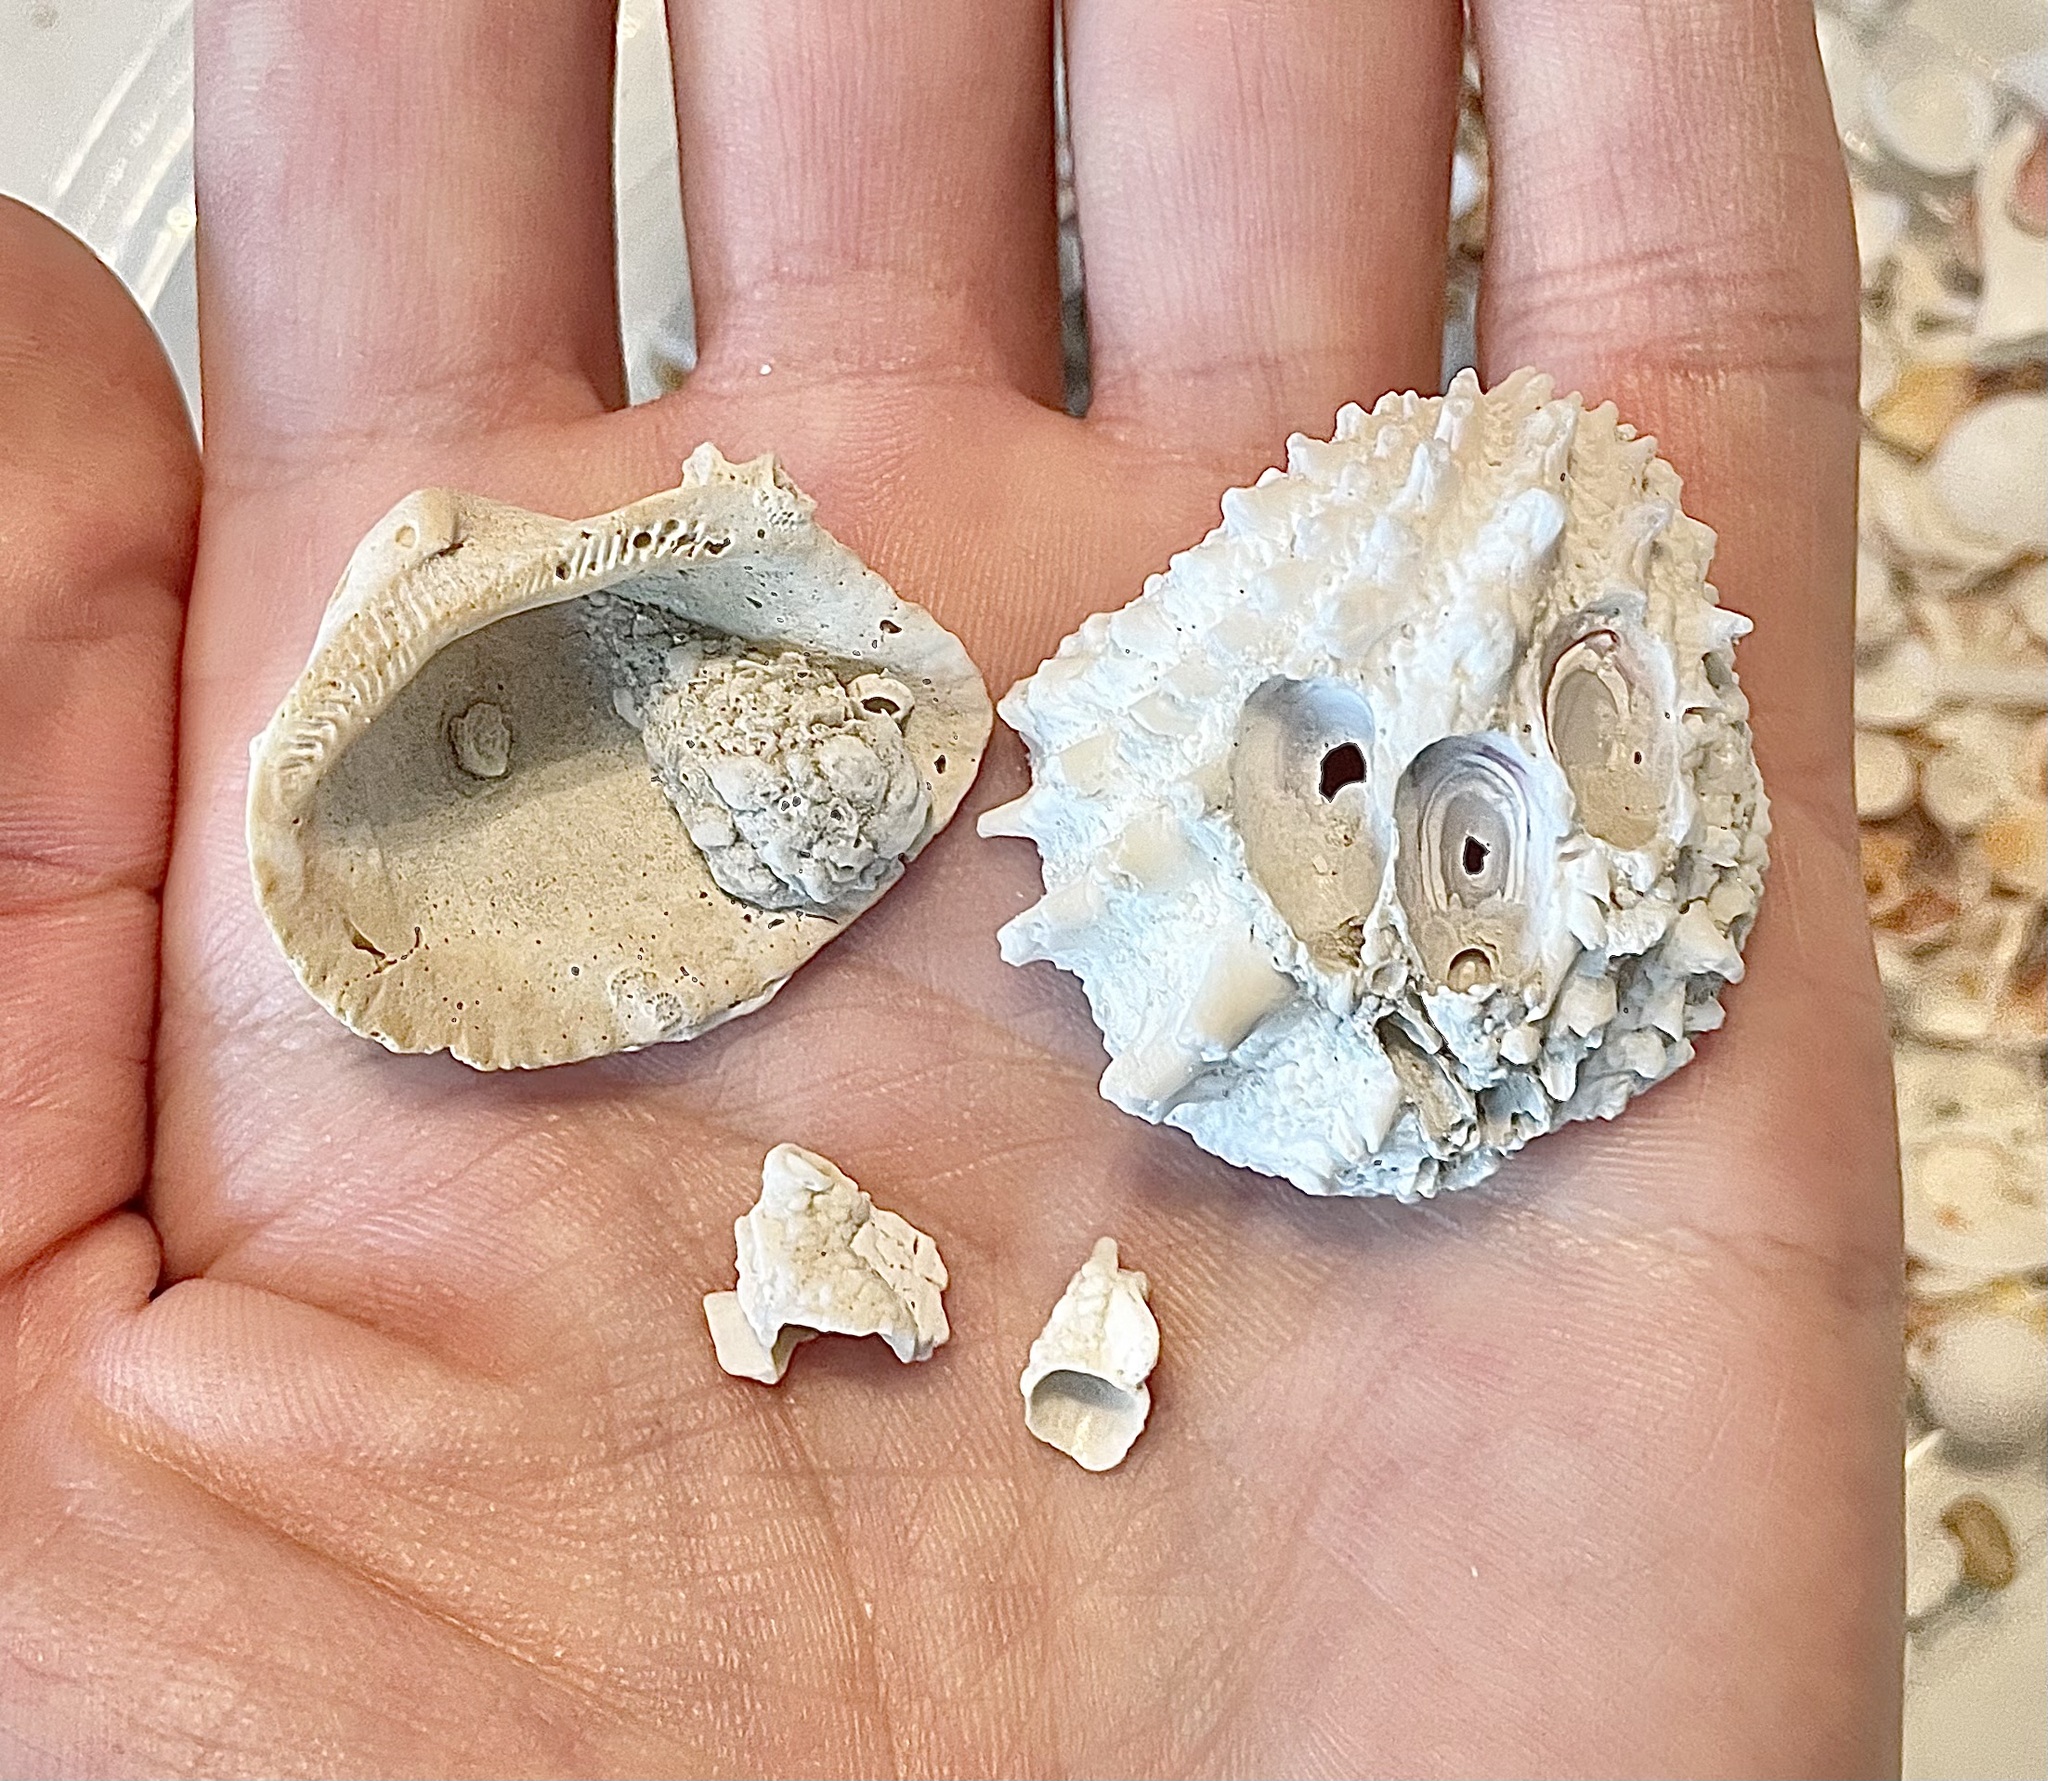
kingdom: Animalia
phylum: Mollusca
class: Bivalvia
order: Gastrochaenida
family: Gastrochaenidae
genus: Rocellaria
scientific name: Rocellaria stimpsonii
